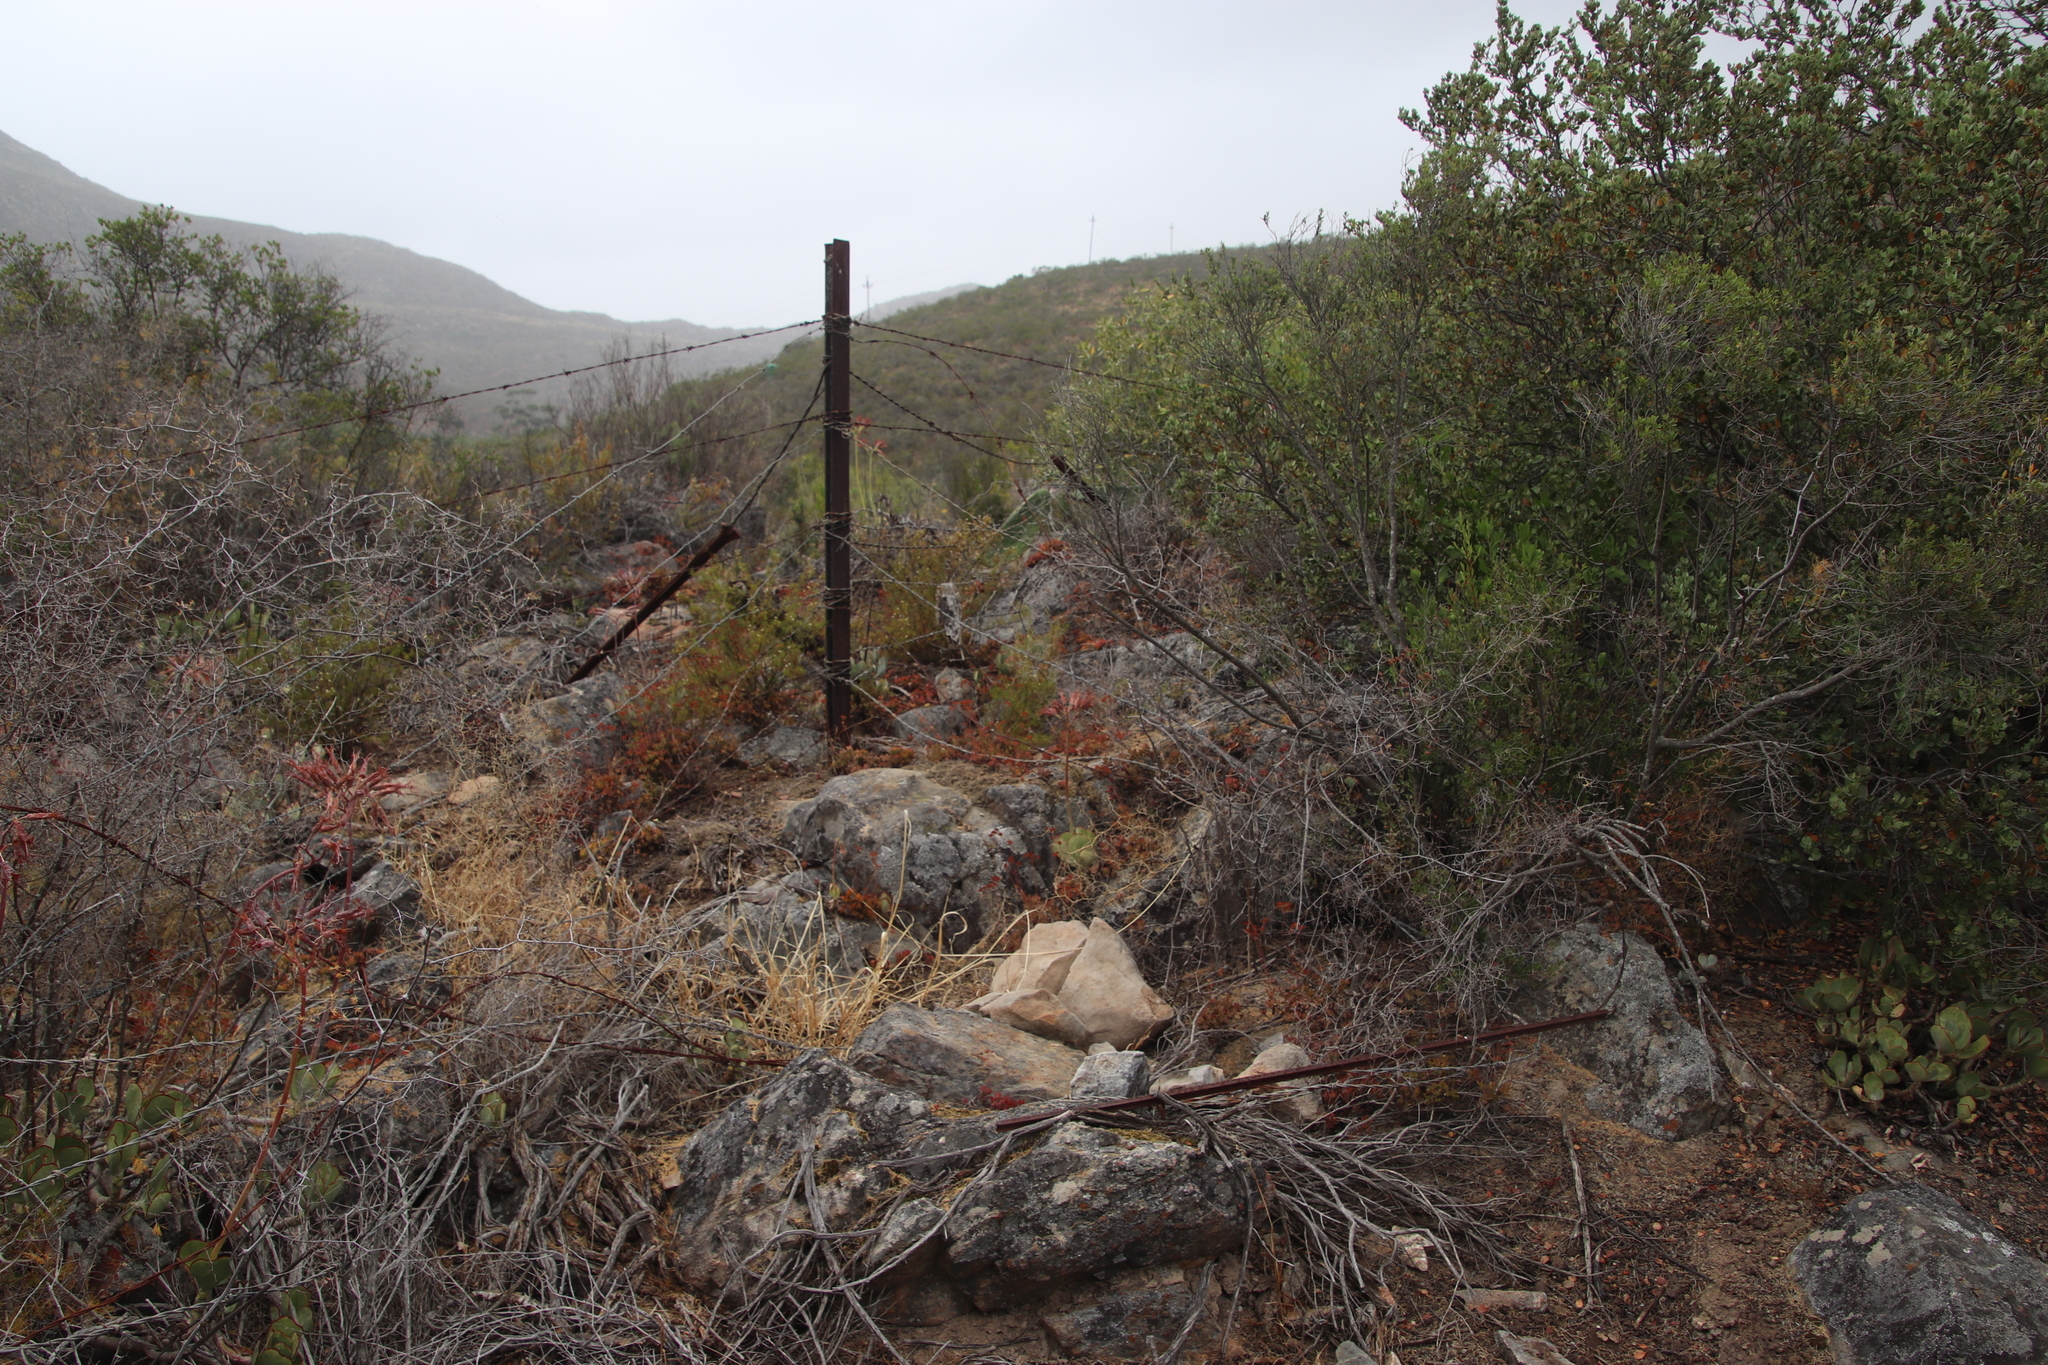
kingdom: Plantae
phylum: Tracheophyta
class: Magnoliopsida
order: Saxifragales
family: Crassulaceae
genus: Cotyledon
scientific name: Cotyledon orbiculata
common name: Pig's ear
